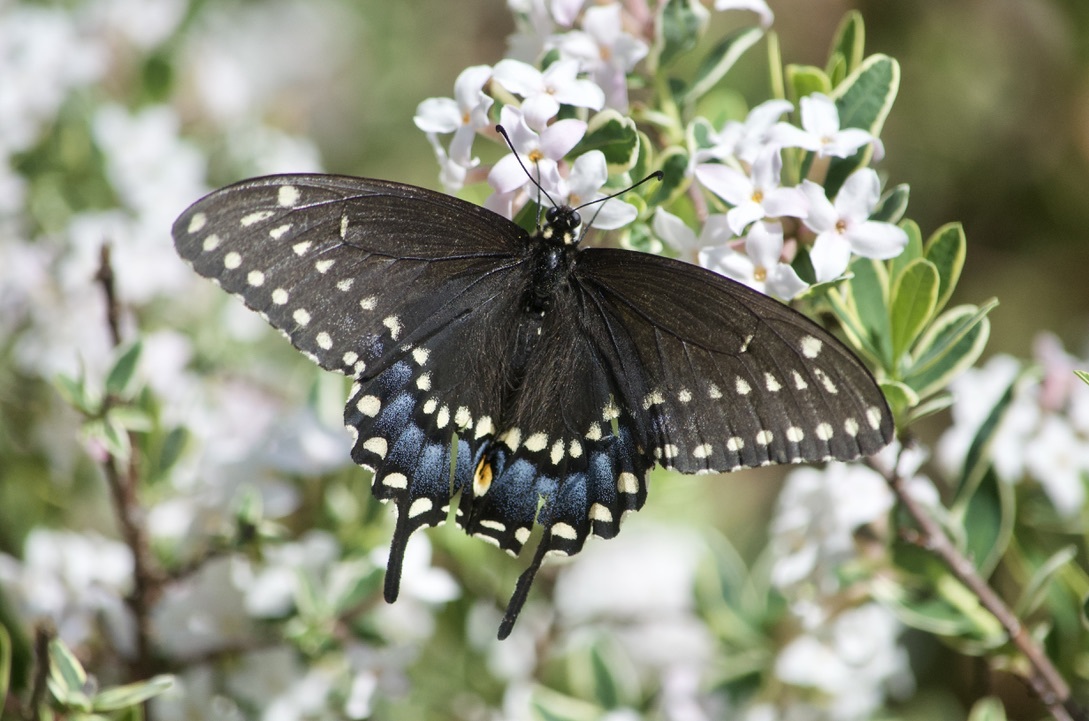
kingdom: Animalia
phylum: Arthropoda
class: Insecta
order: Lepidoptera
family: Papilionidae
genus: Papilio
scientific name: Papilio polyxenes
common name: Black swallowtail
